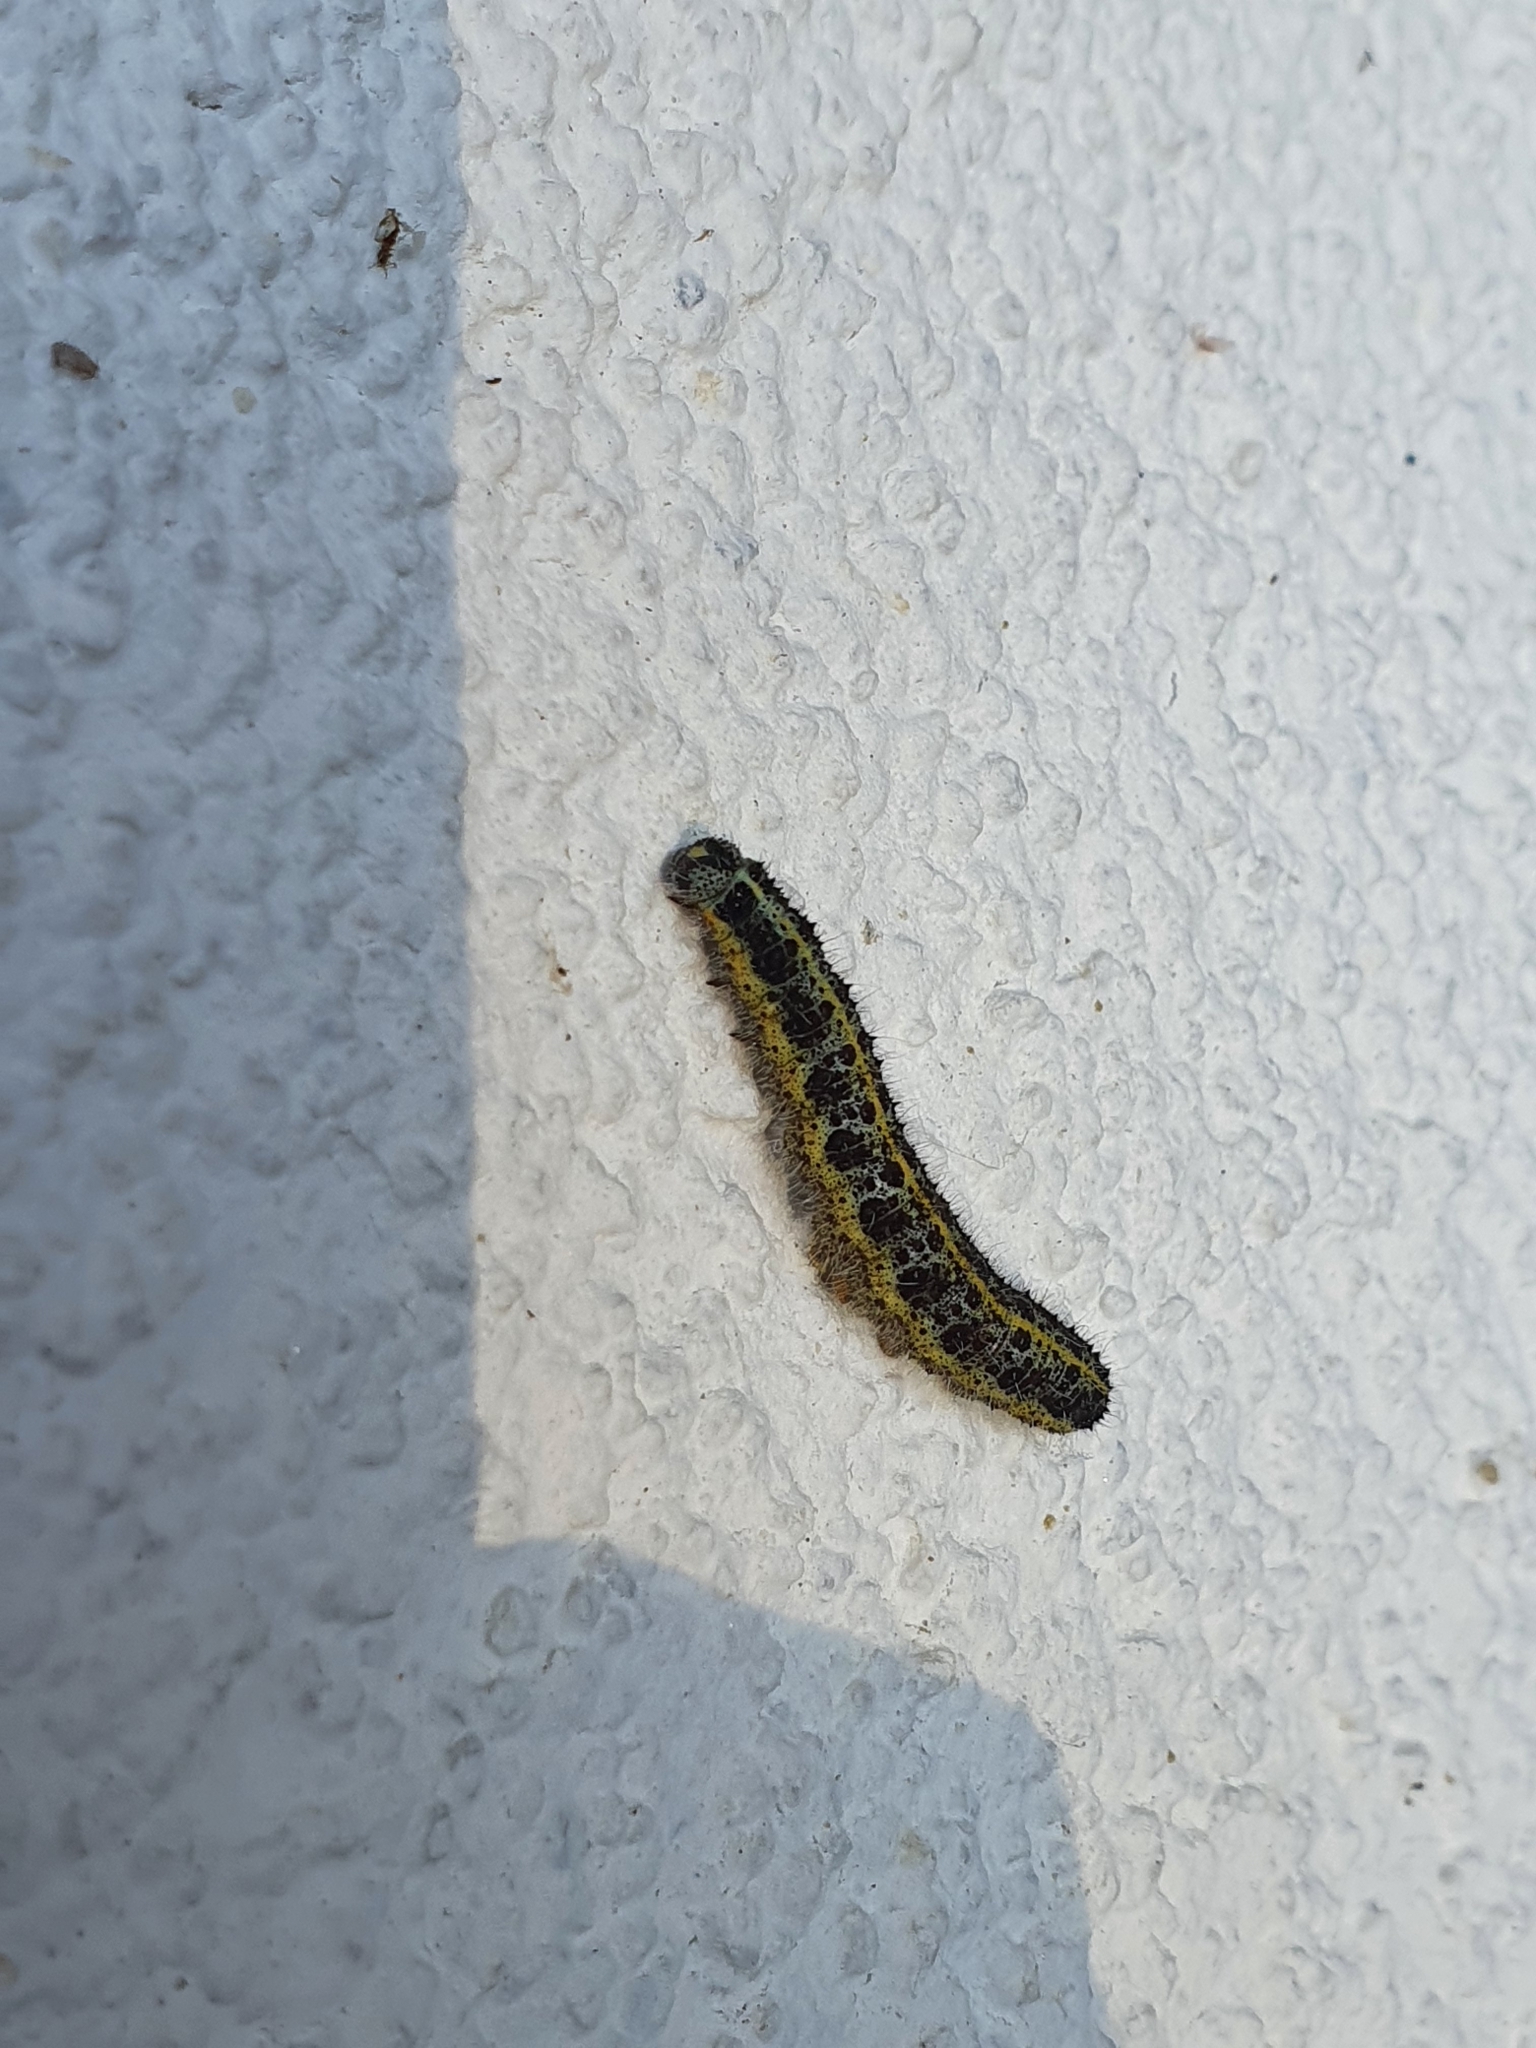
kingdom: Animalia
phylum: Arthropoda
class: Insecta
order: Lepidoptera
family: Pieridae
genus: Pieris
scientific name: Pieris brassicae
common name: Large white
